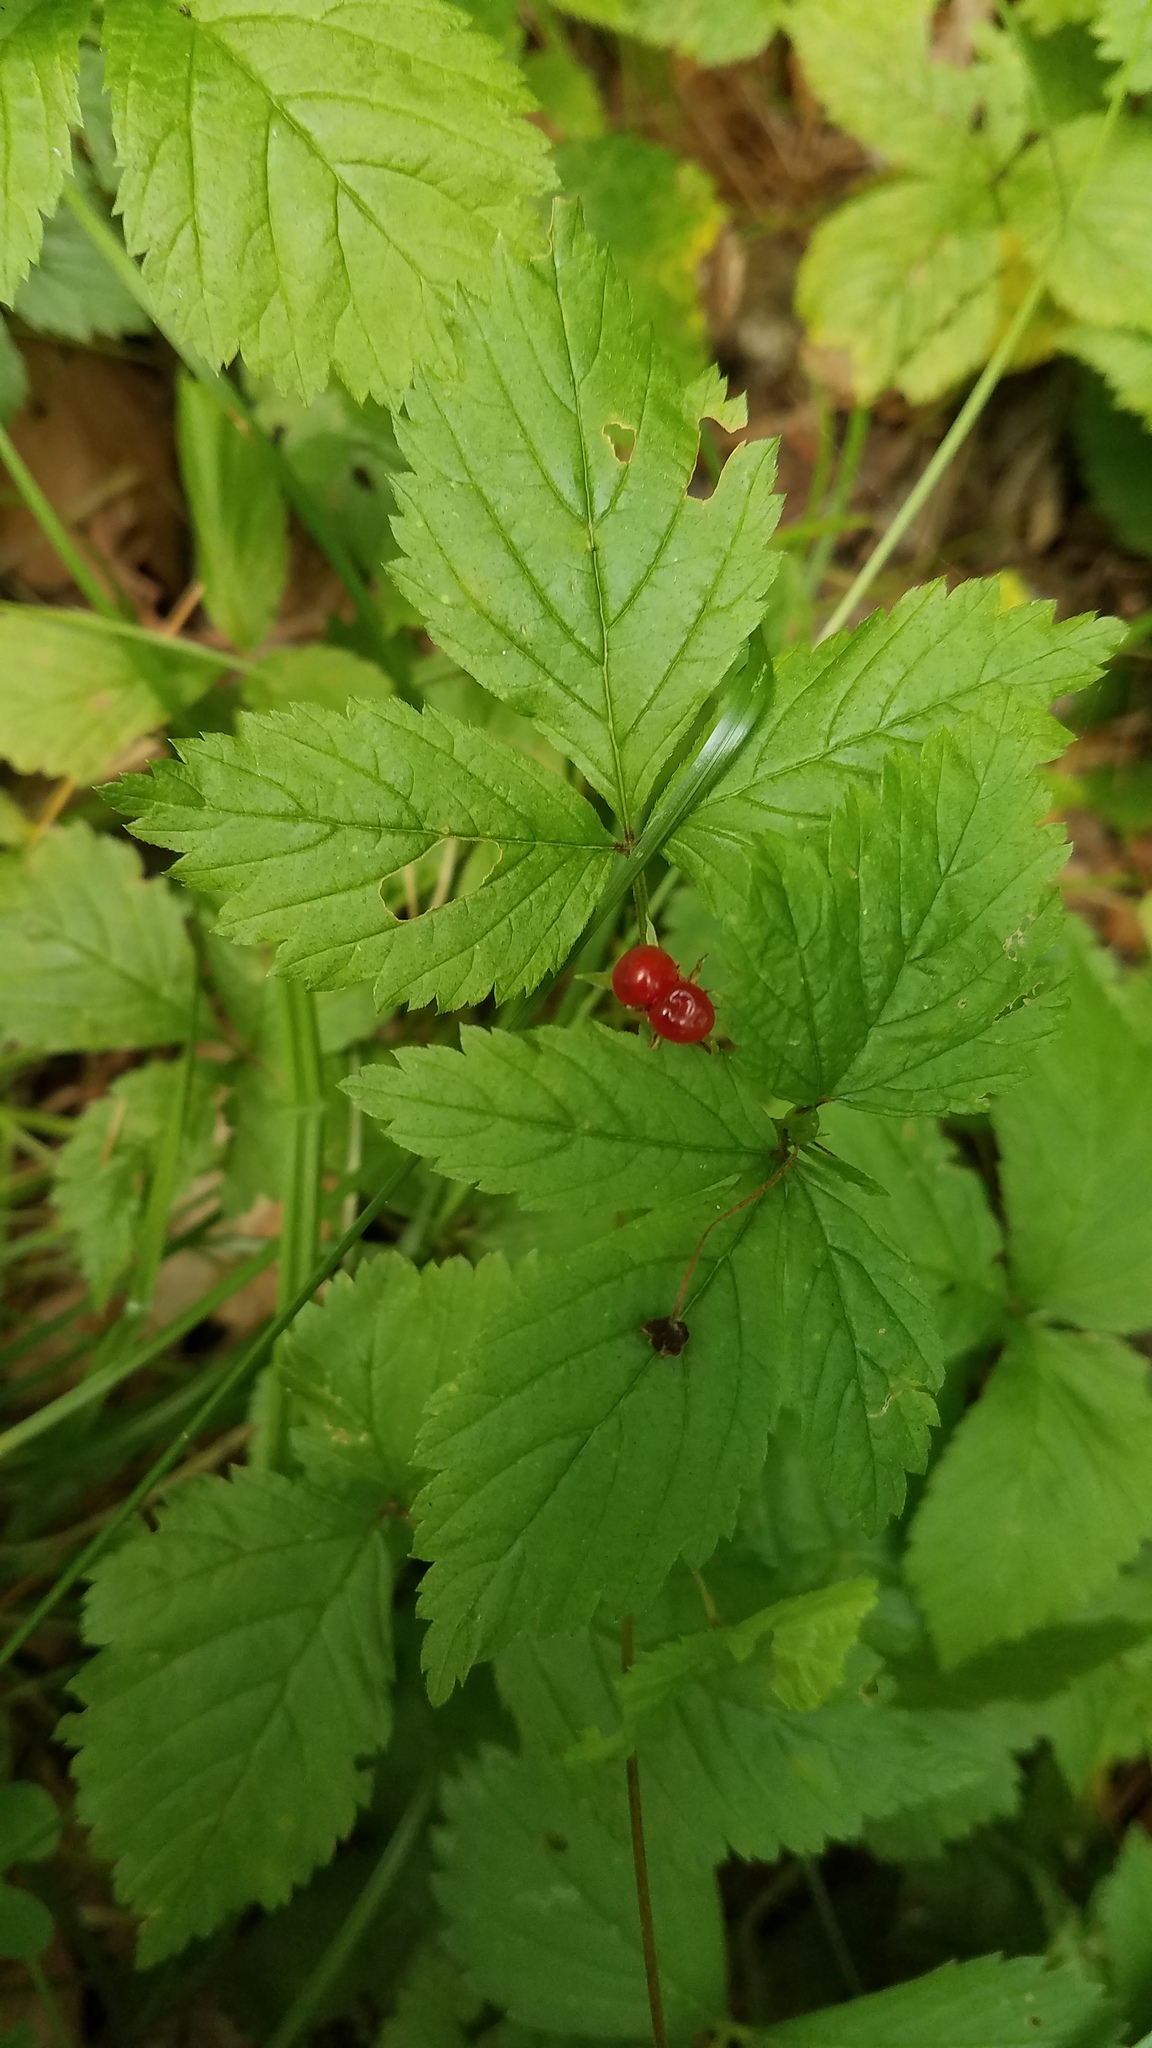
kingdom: Plantae
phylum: Tracheophyta
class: Magnoliopsida
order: Rosales
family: Rosaceae
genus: Rubus
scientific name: Rubus pubescens
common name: Dwarf raspberry
